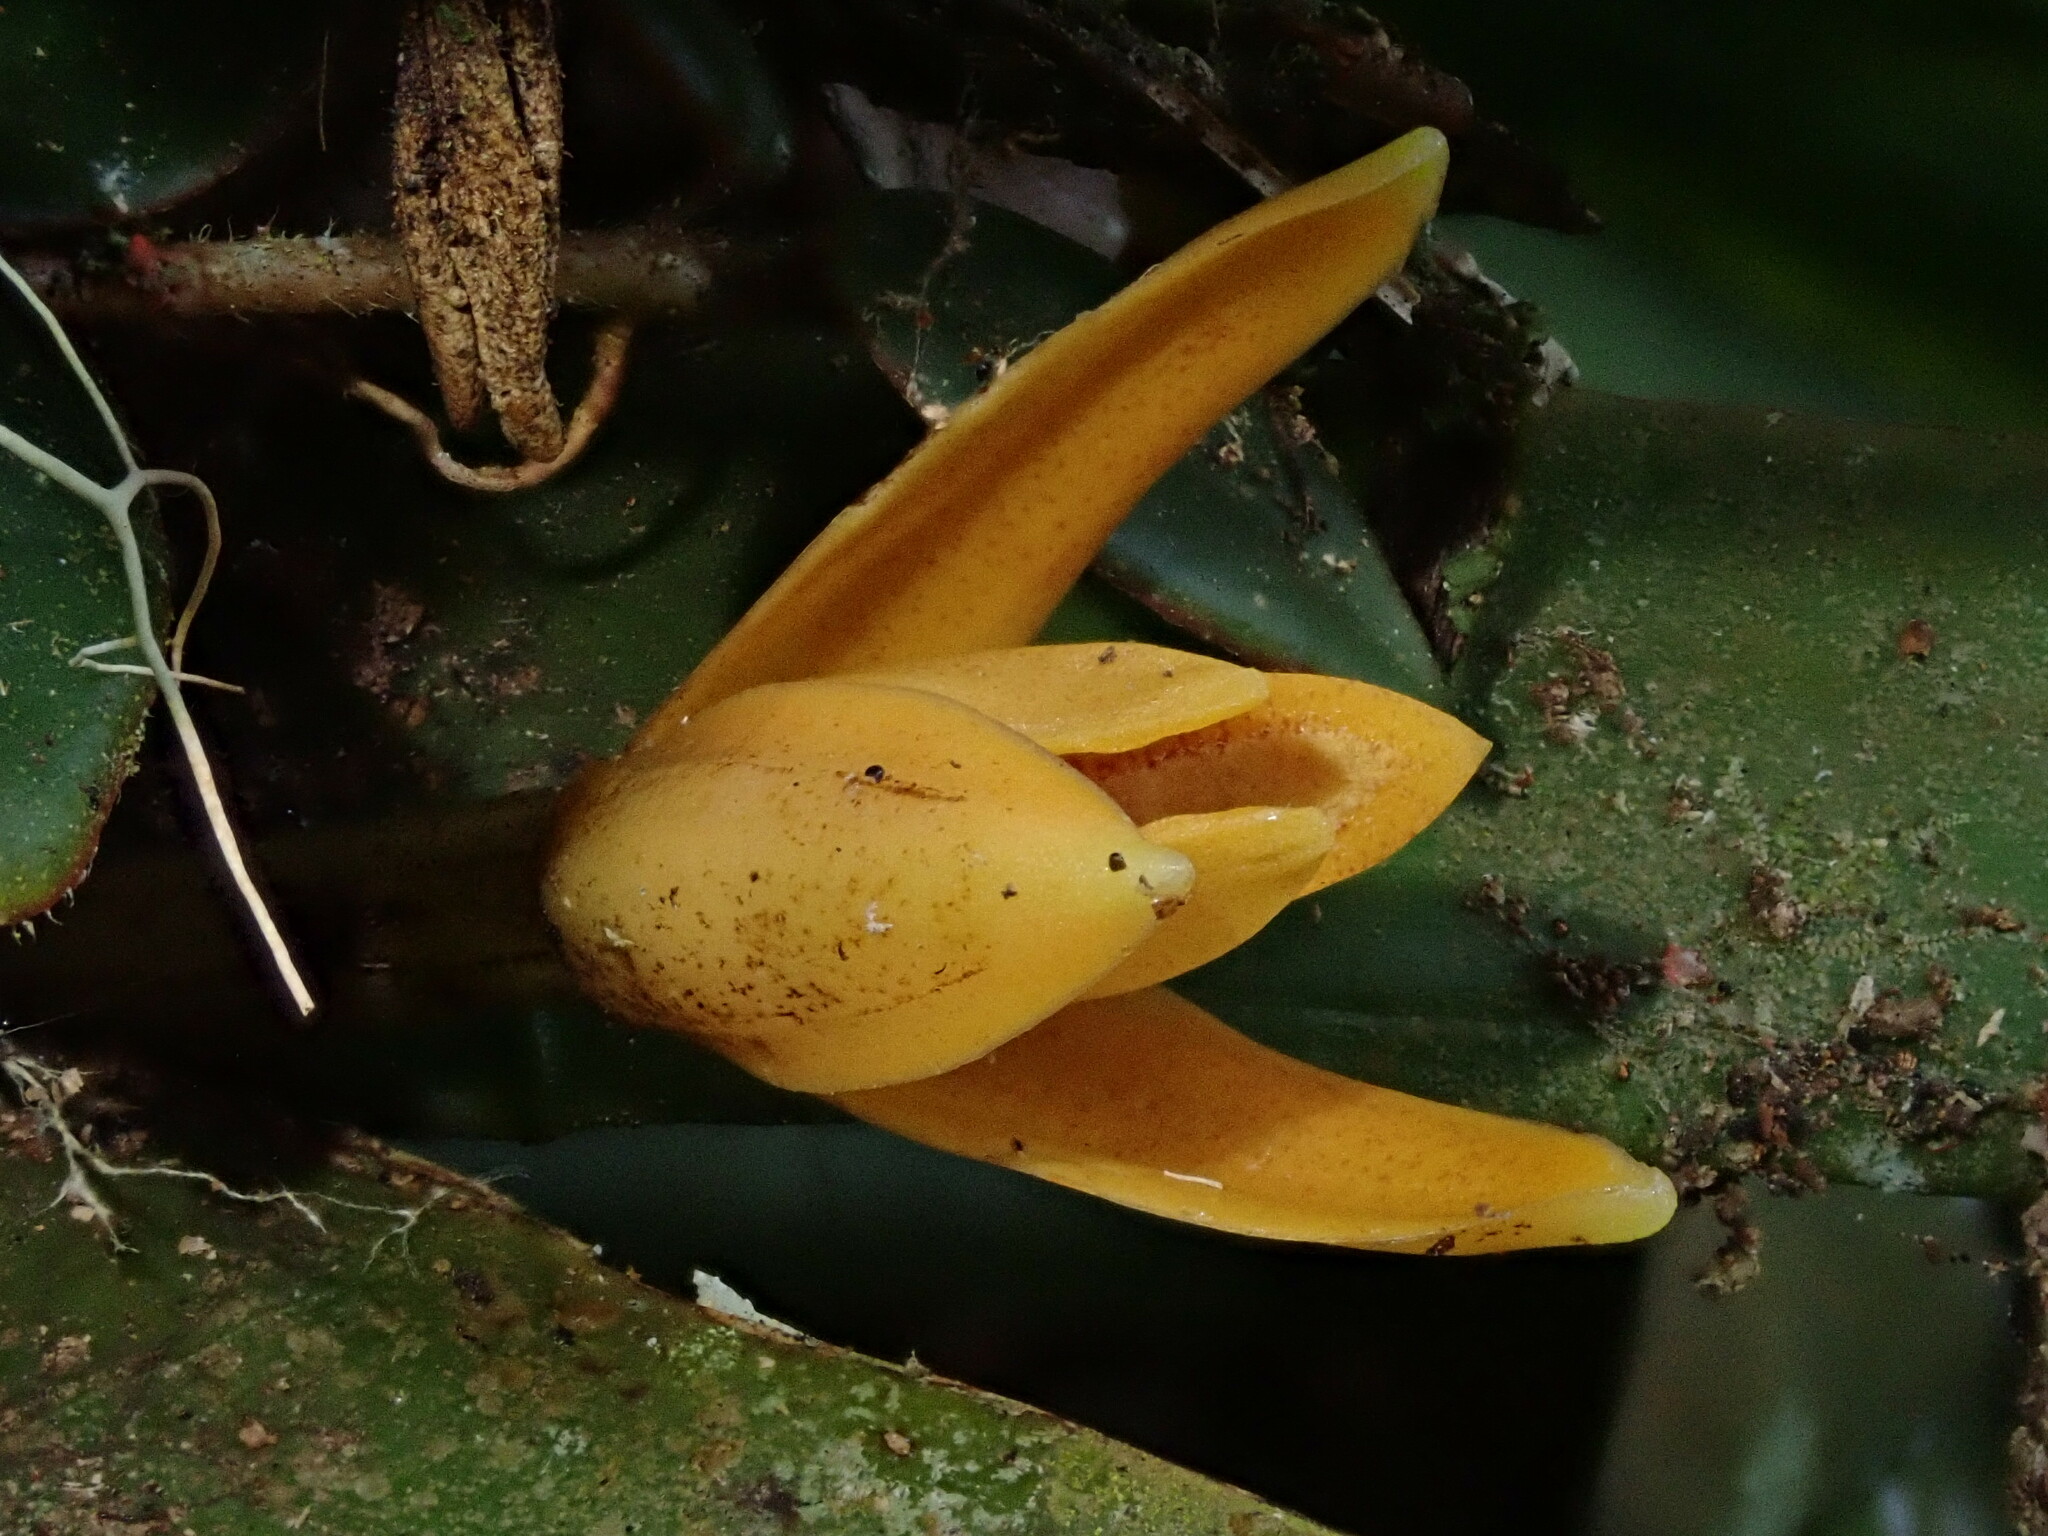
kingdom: Plantae
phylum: Tracheophyta
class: Liliopsida
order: Asparagales
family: Orchidaceae
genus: Maxillaria
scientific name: Maxillaria villosa
